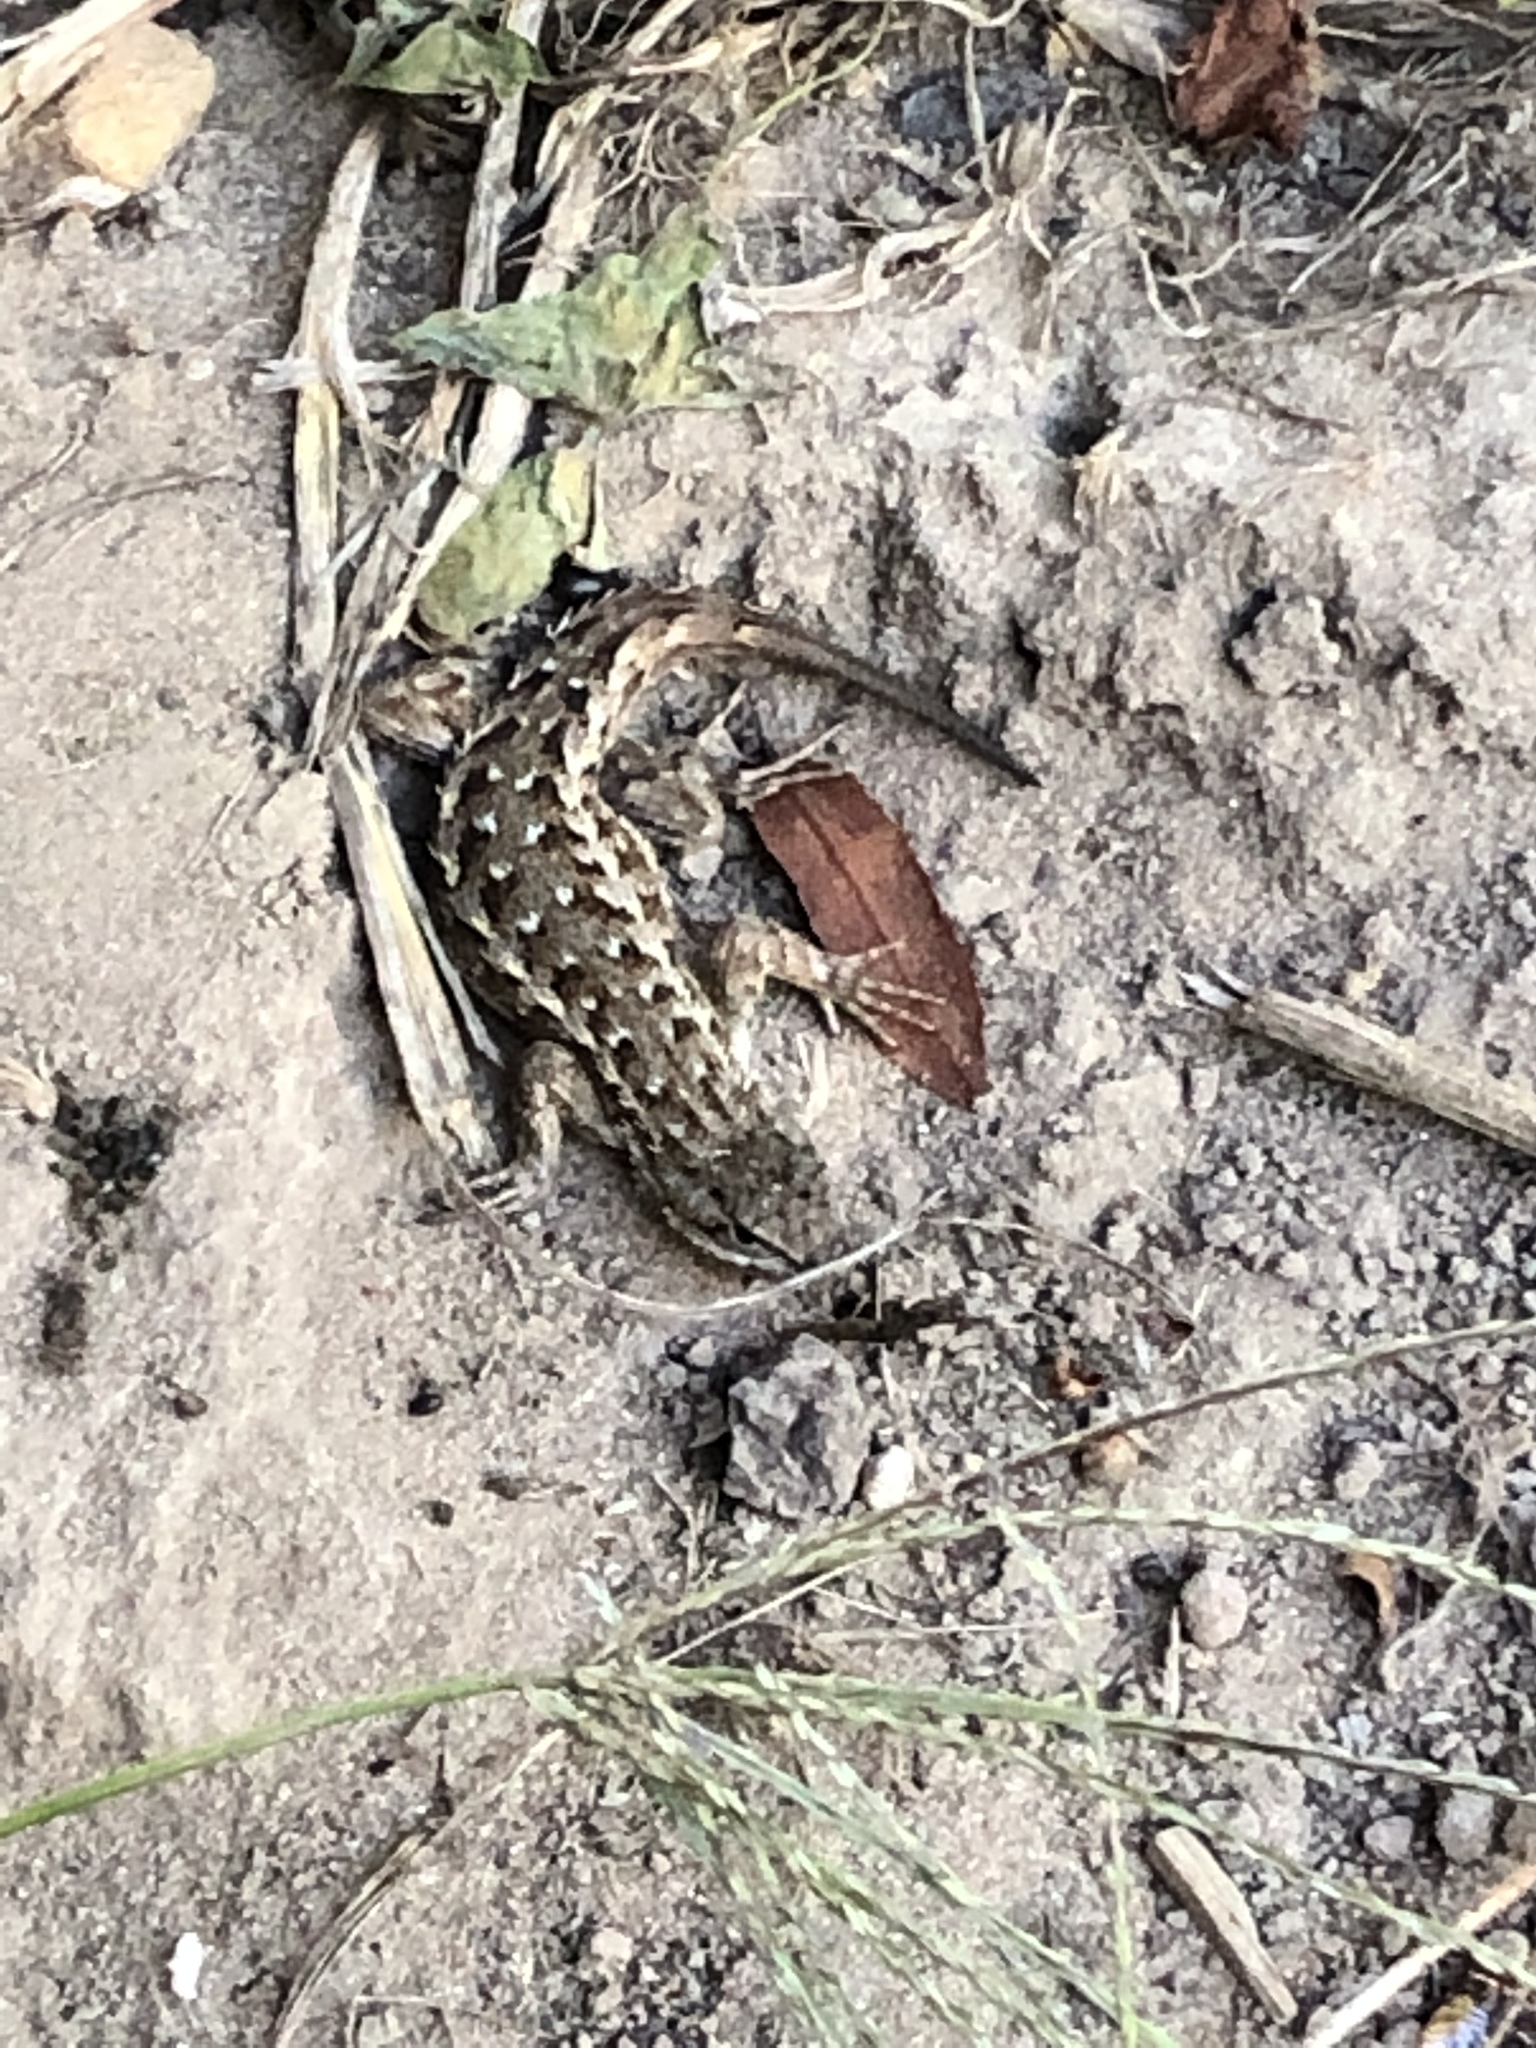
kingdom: Animalia
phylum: Chordata
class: Squamata
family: Phrynosomatidae
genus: Sceloporus
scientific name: Sceloporus occidentalis
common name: Western fence lizard
